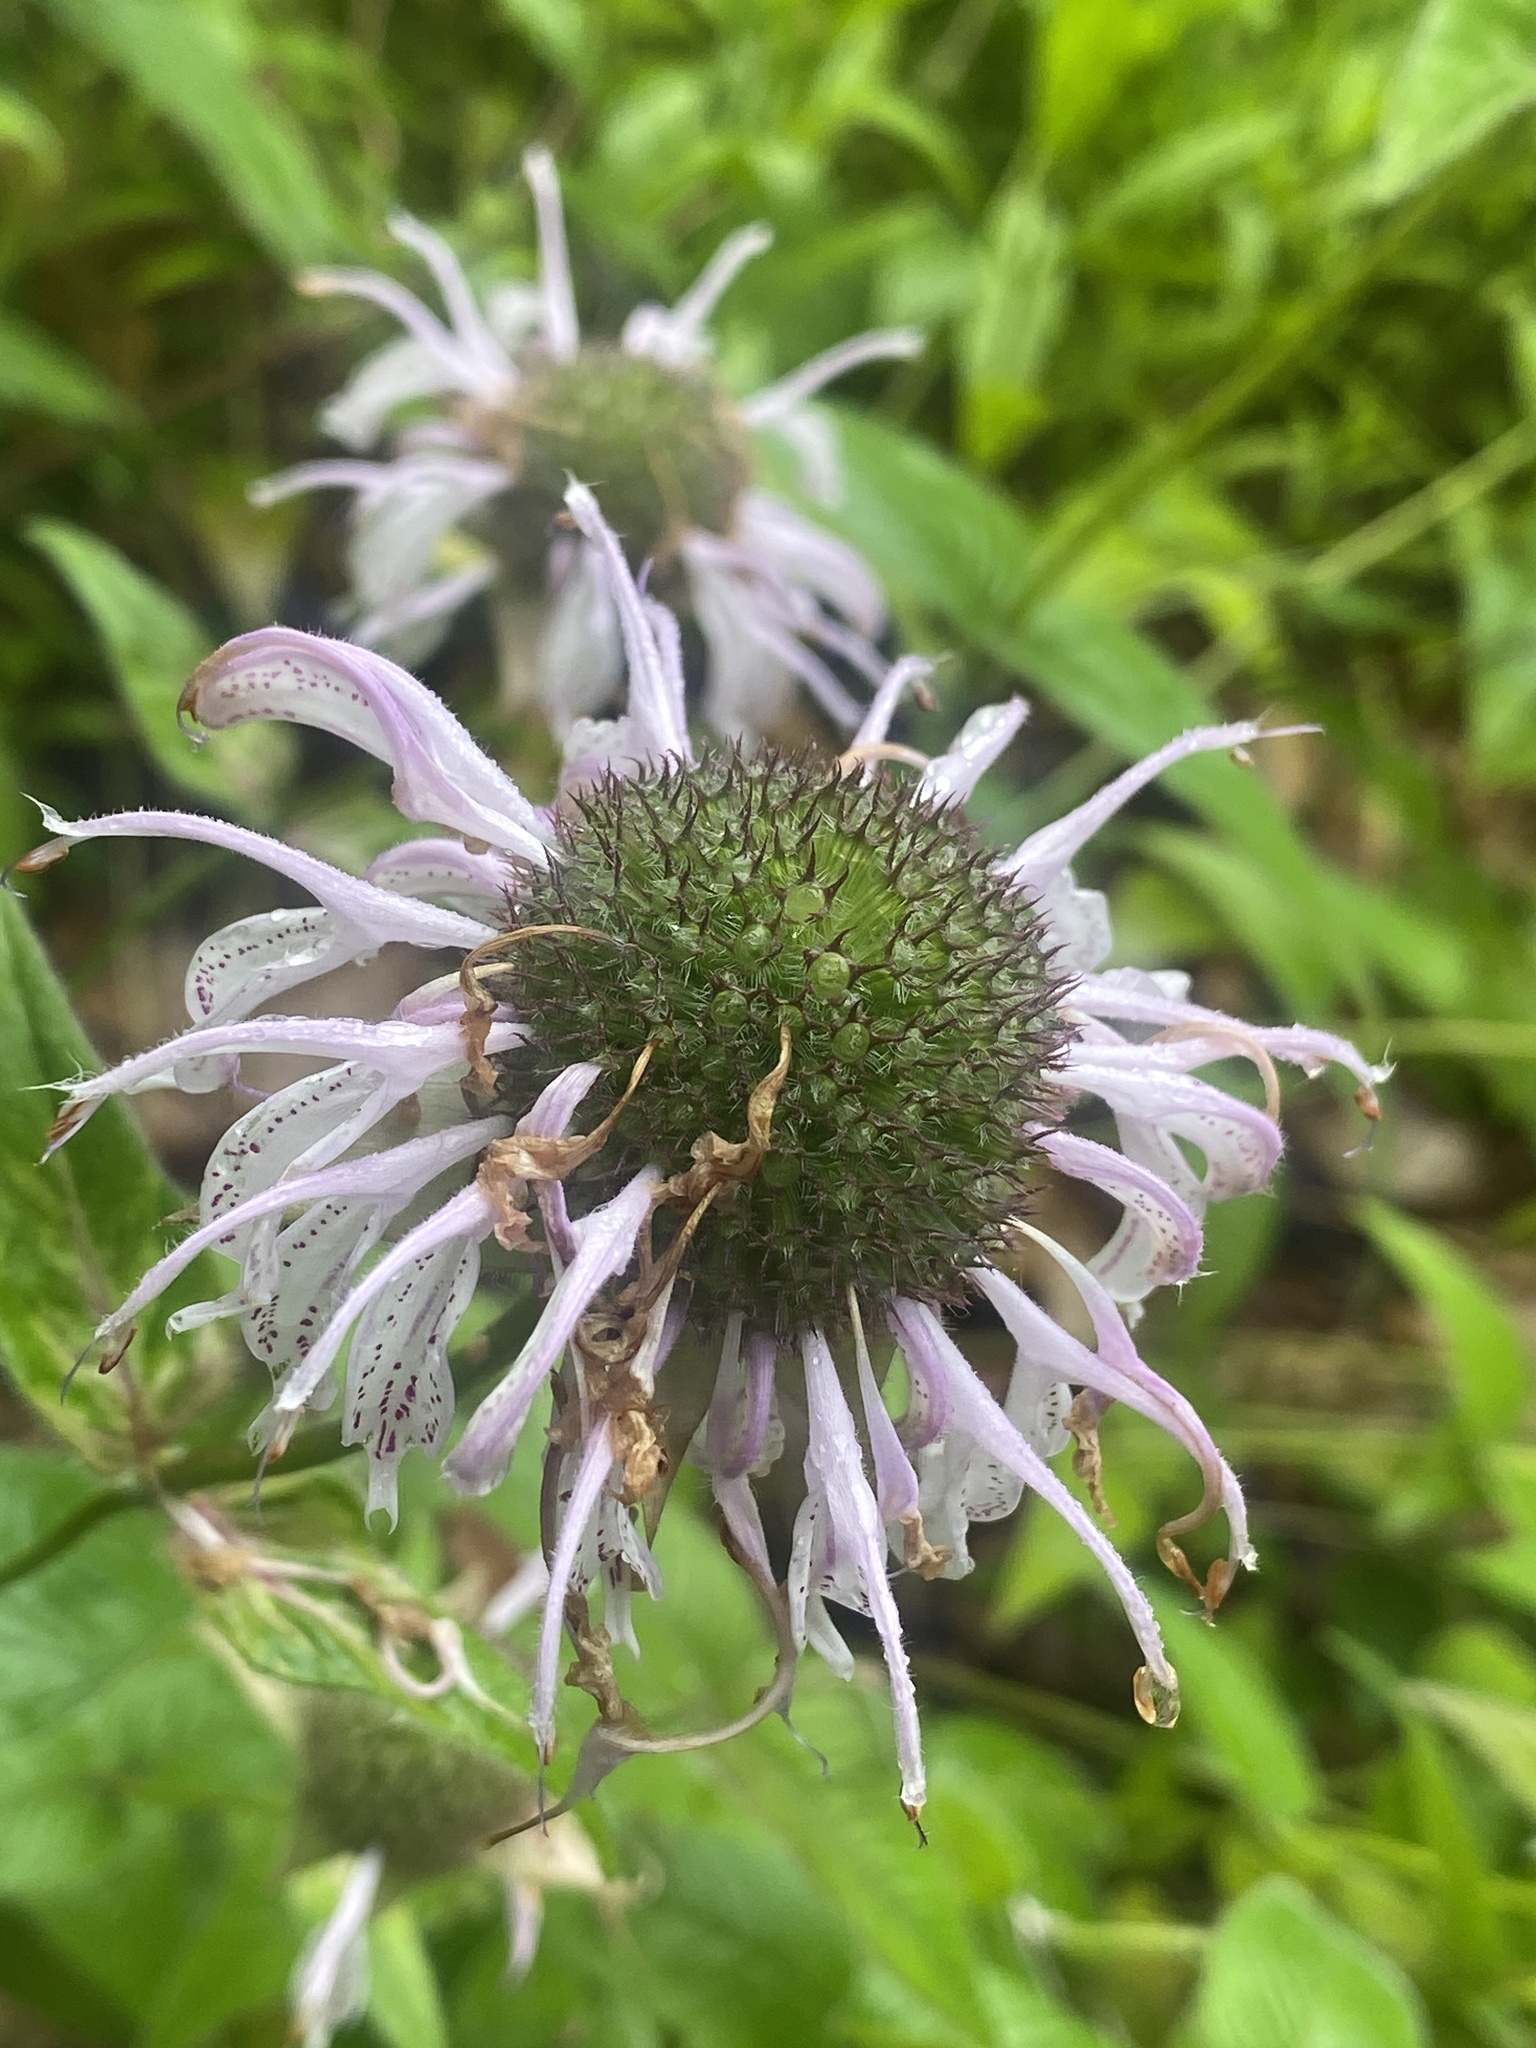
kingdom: Plantae
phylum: Tracheophyta
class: Magnoliopsida
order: Lamiales
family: Lamiaceae
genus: Monarda
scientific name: Monarda fistulosa
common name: Purple beebalm
